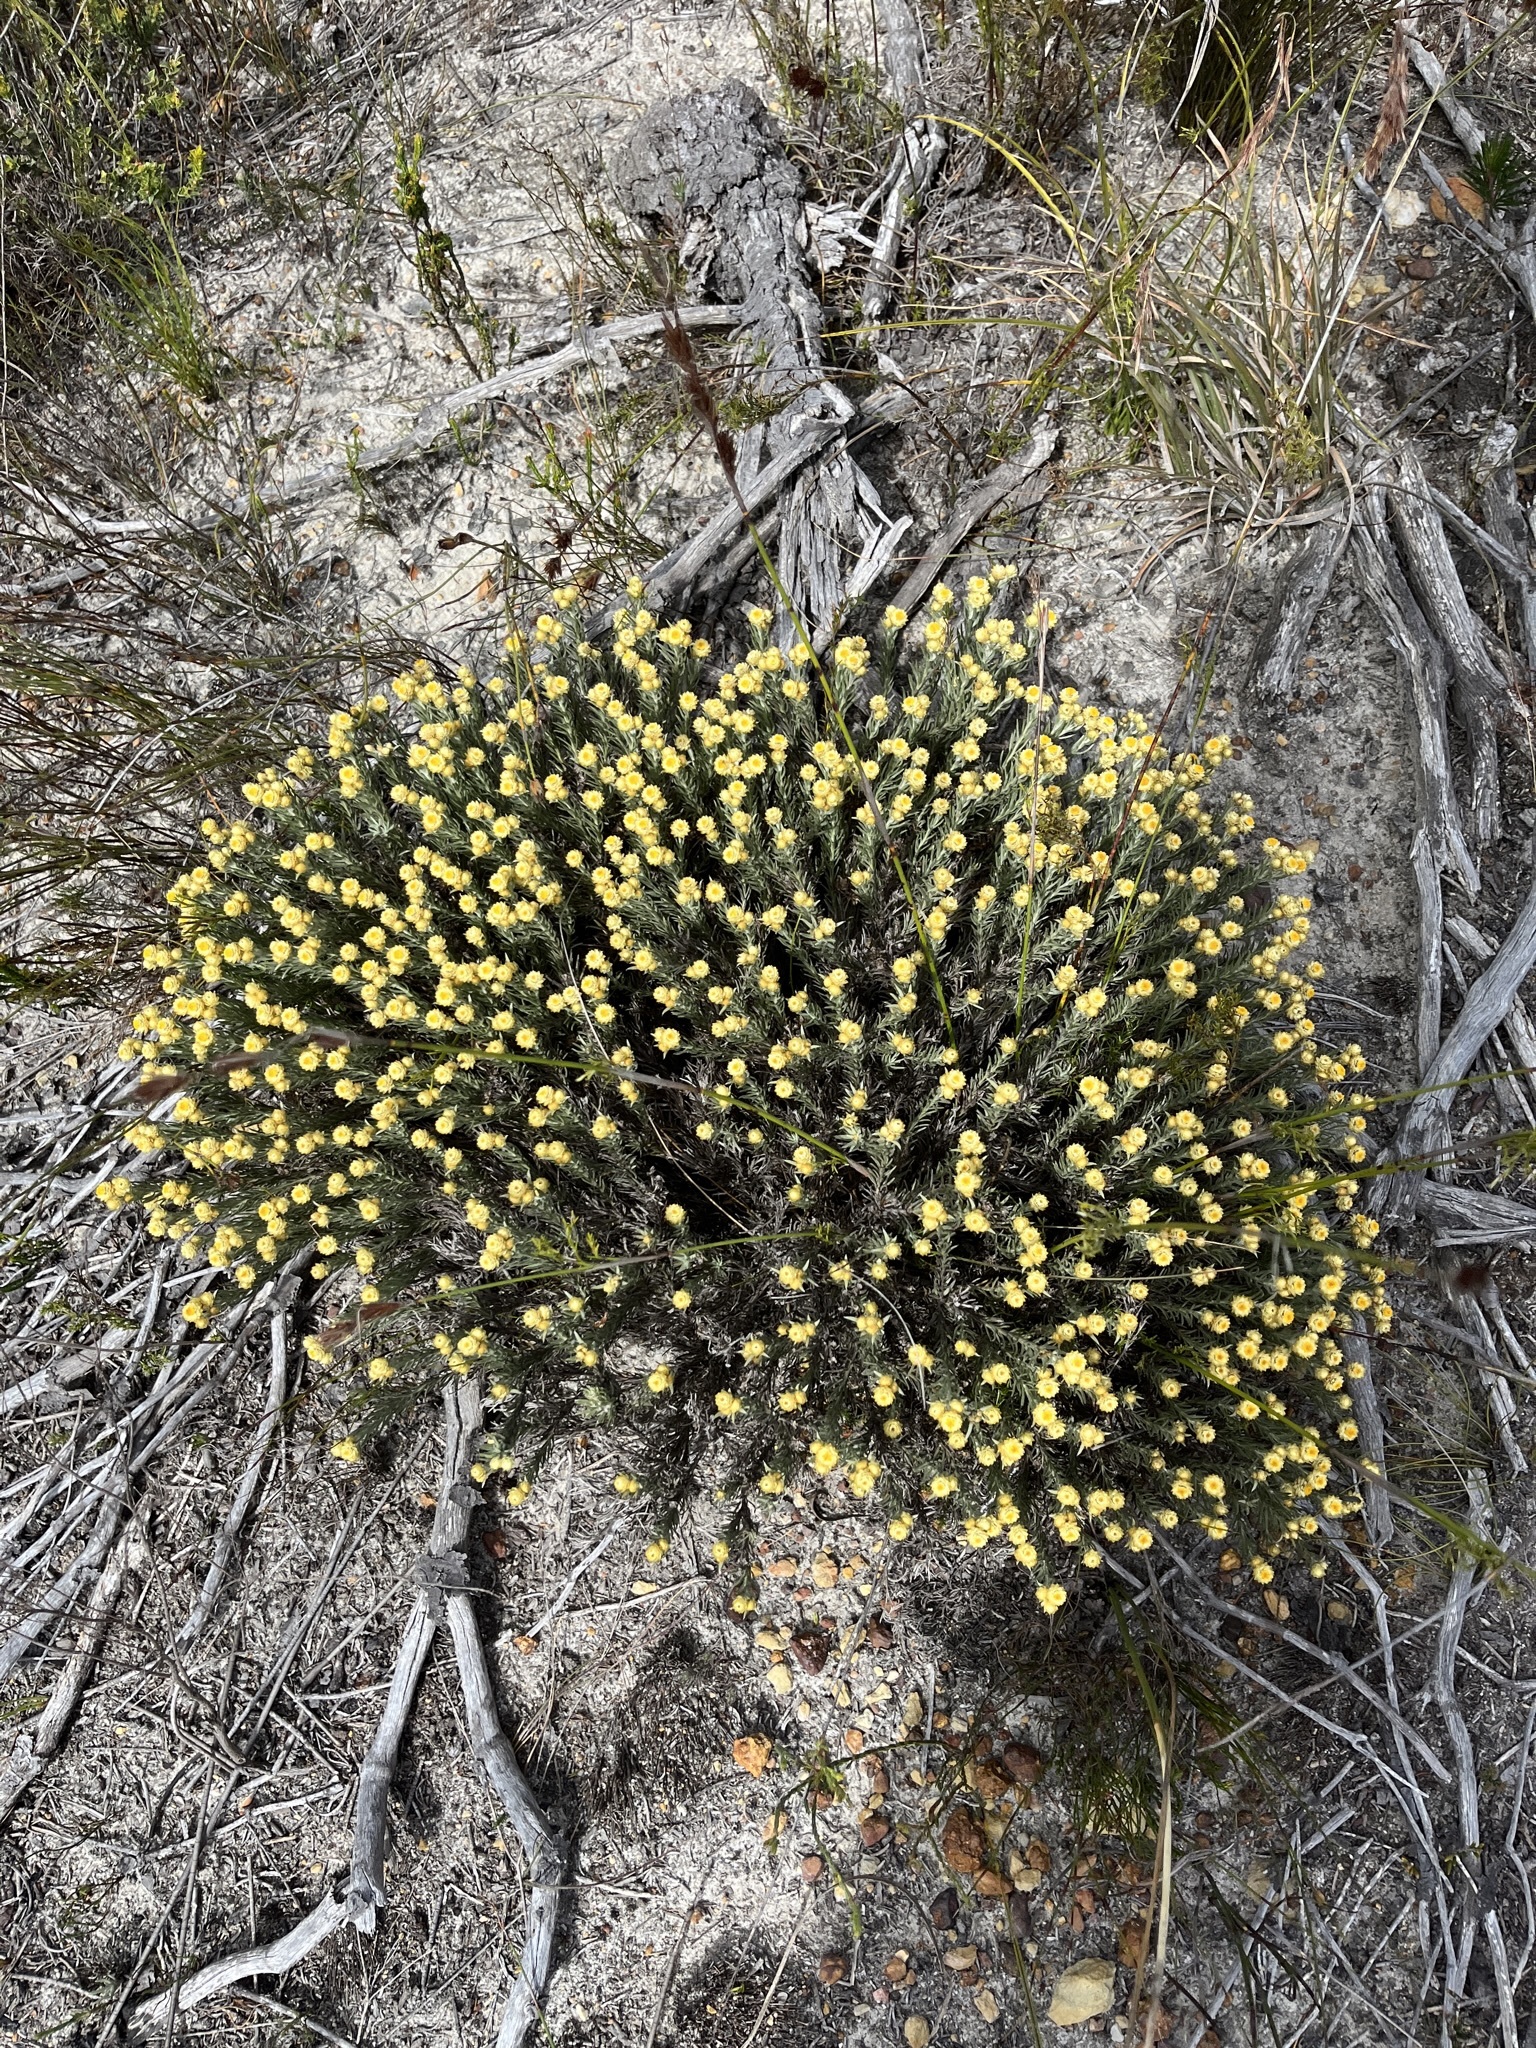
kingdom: Plantae
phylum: Tracheophyta
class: Magnoliopsida
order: Asterales
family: Asteraceae
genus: Achyranthemum
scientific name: Achyranthemum paniculatum
